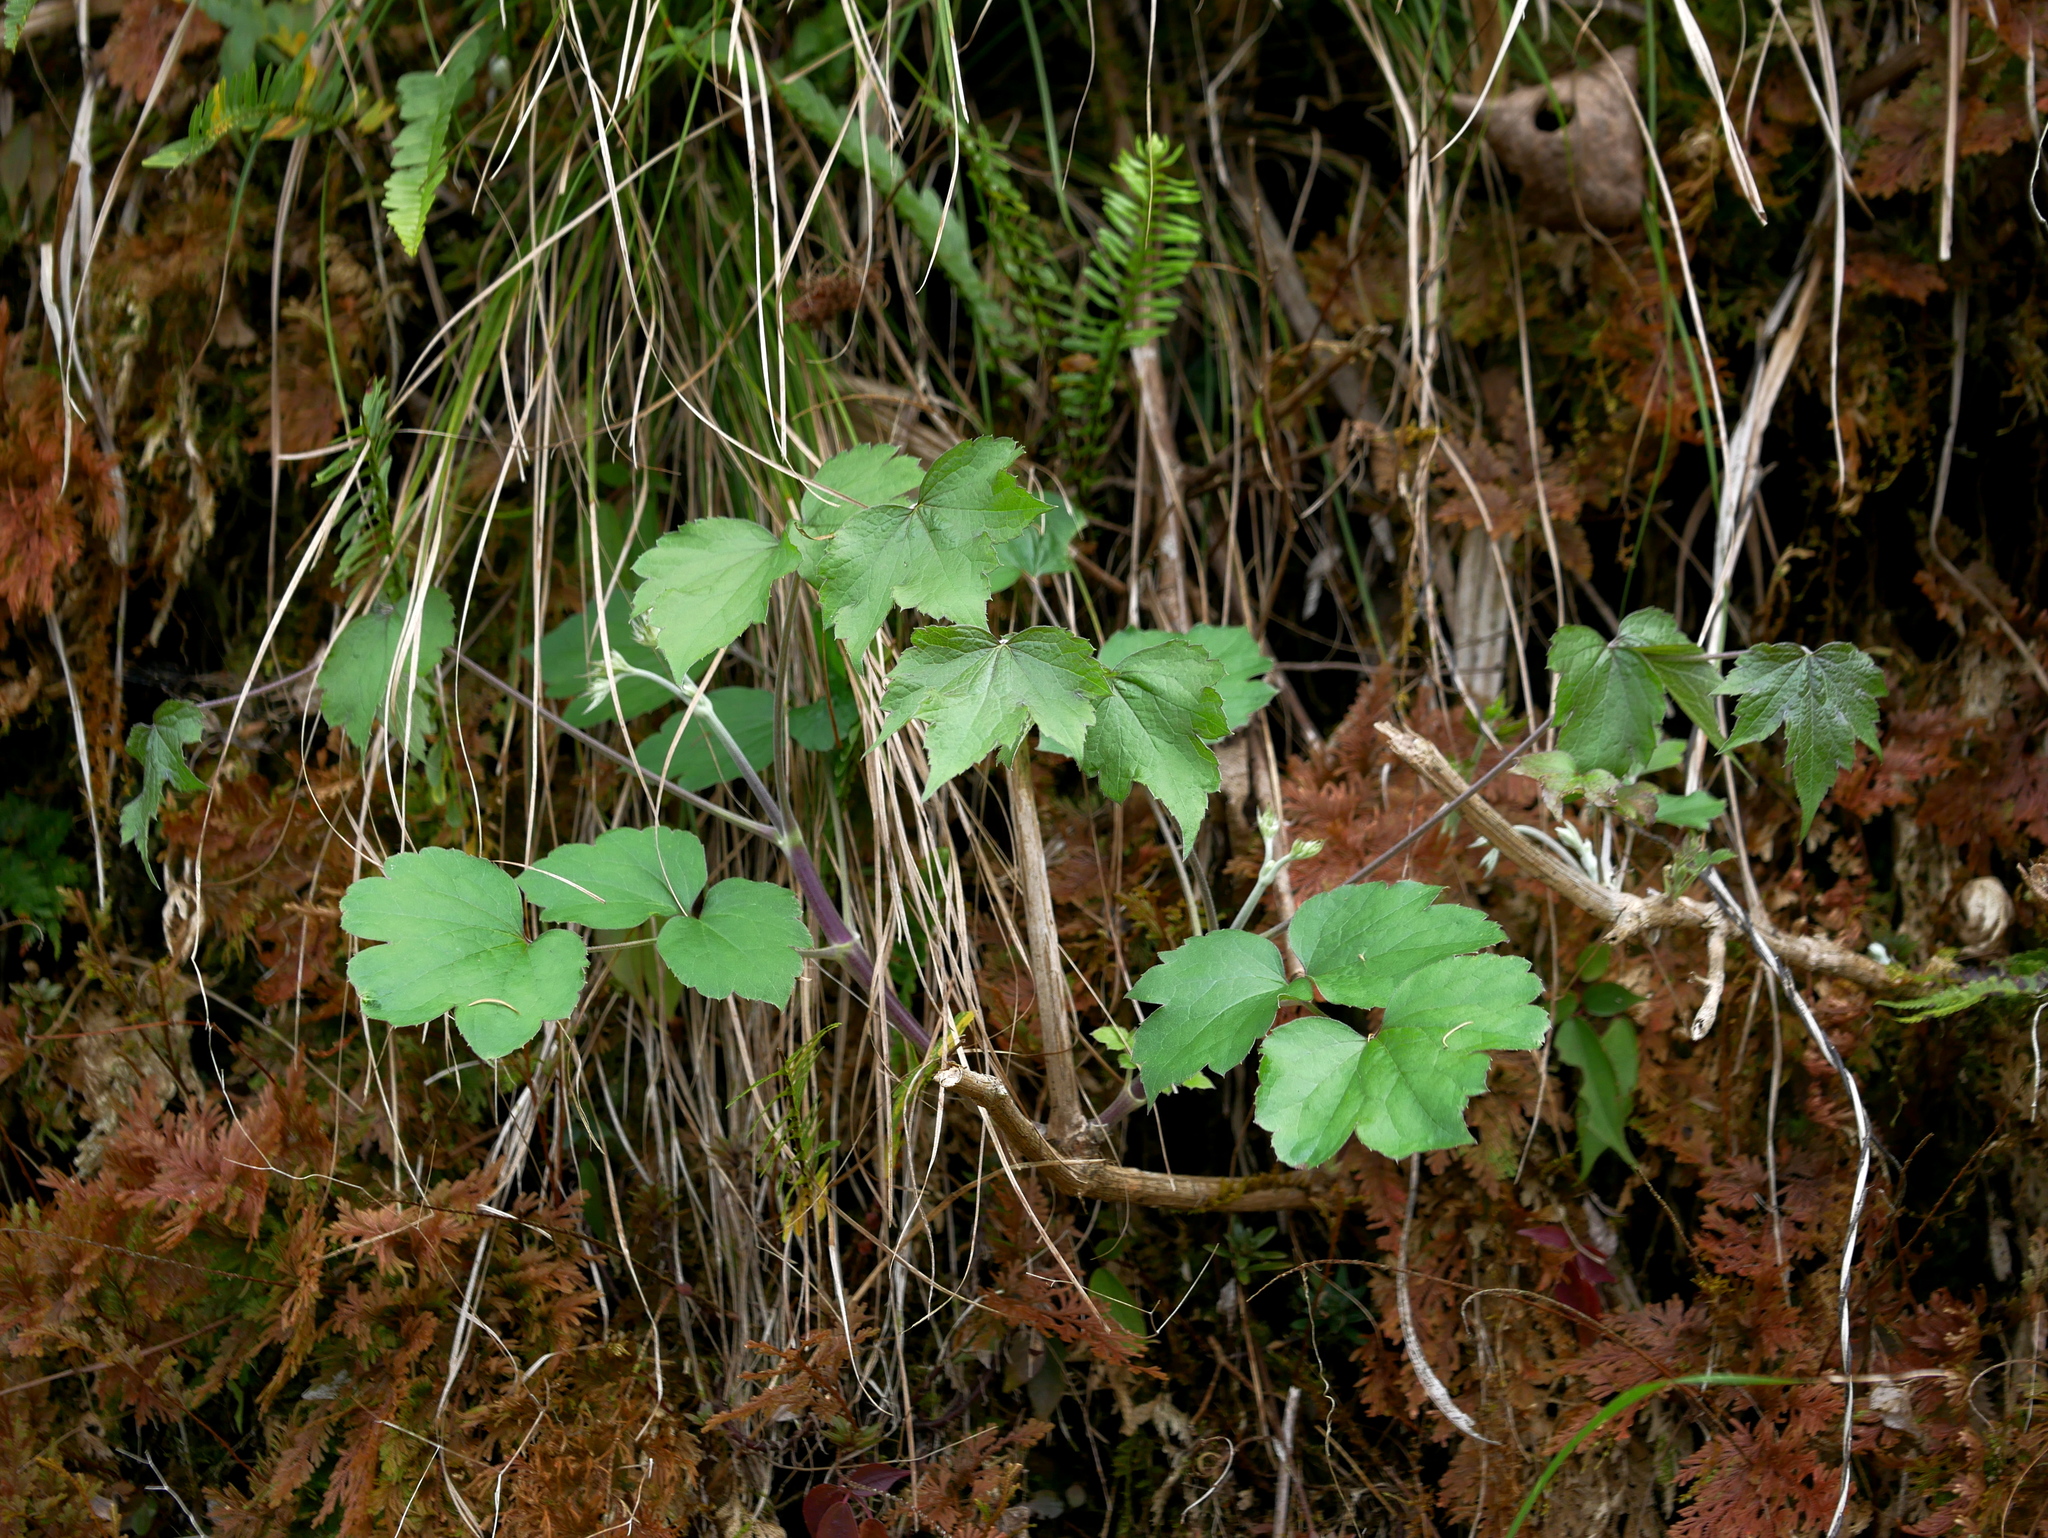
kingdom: Plantae
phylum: Tracheophyta
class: Magnoliopsida
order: Ranunculales
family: Ranunculaceae
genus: Clematis
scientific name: Clematis psilandra
